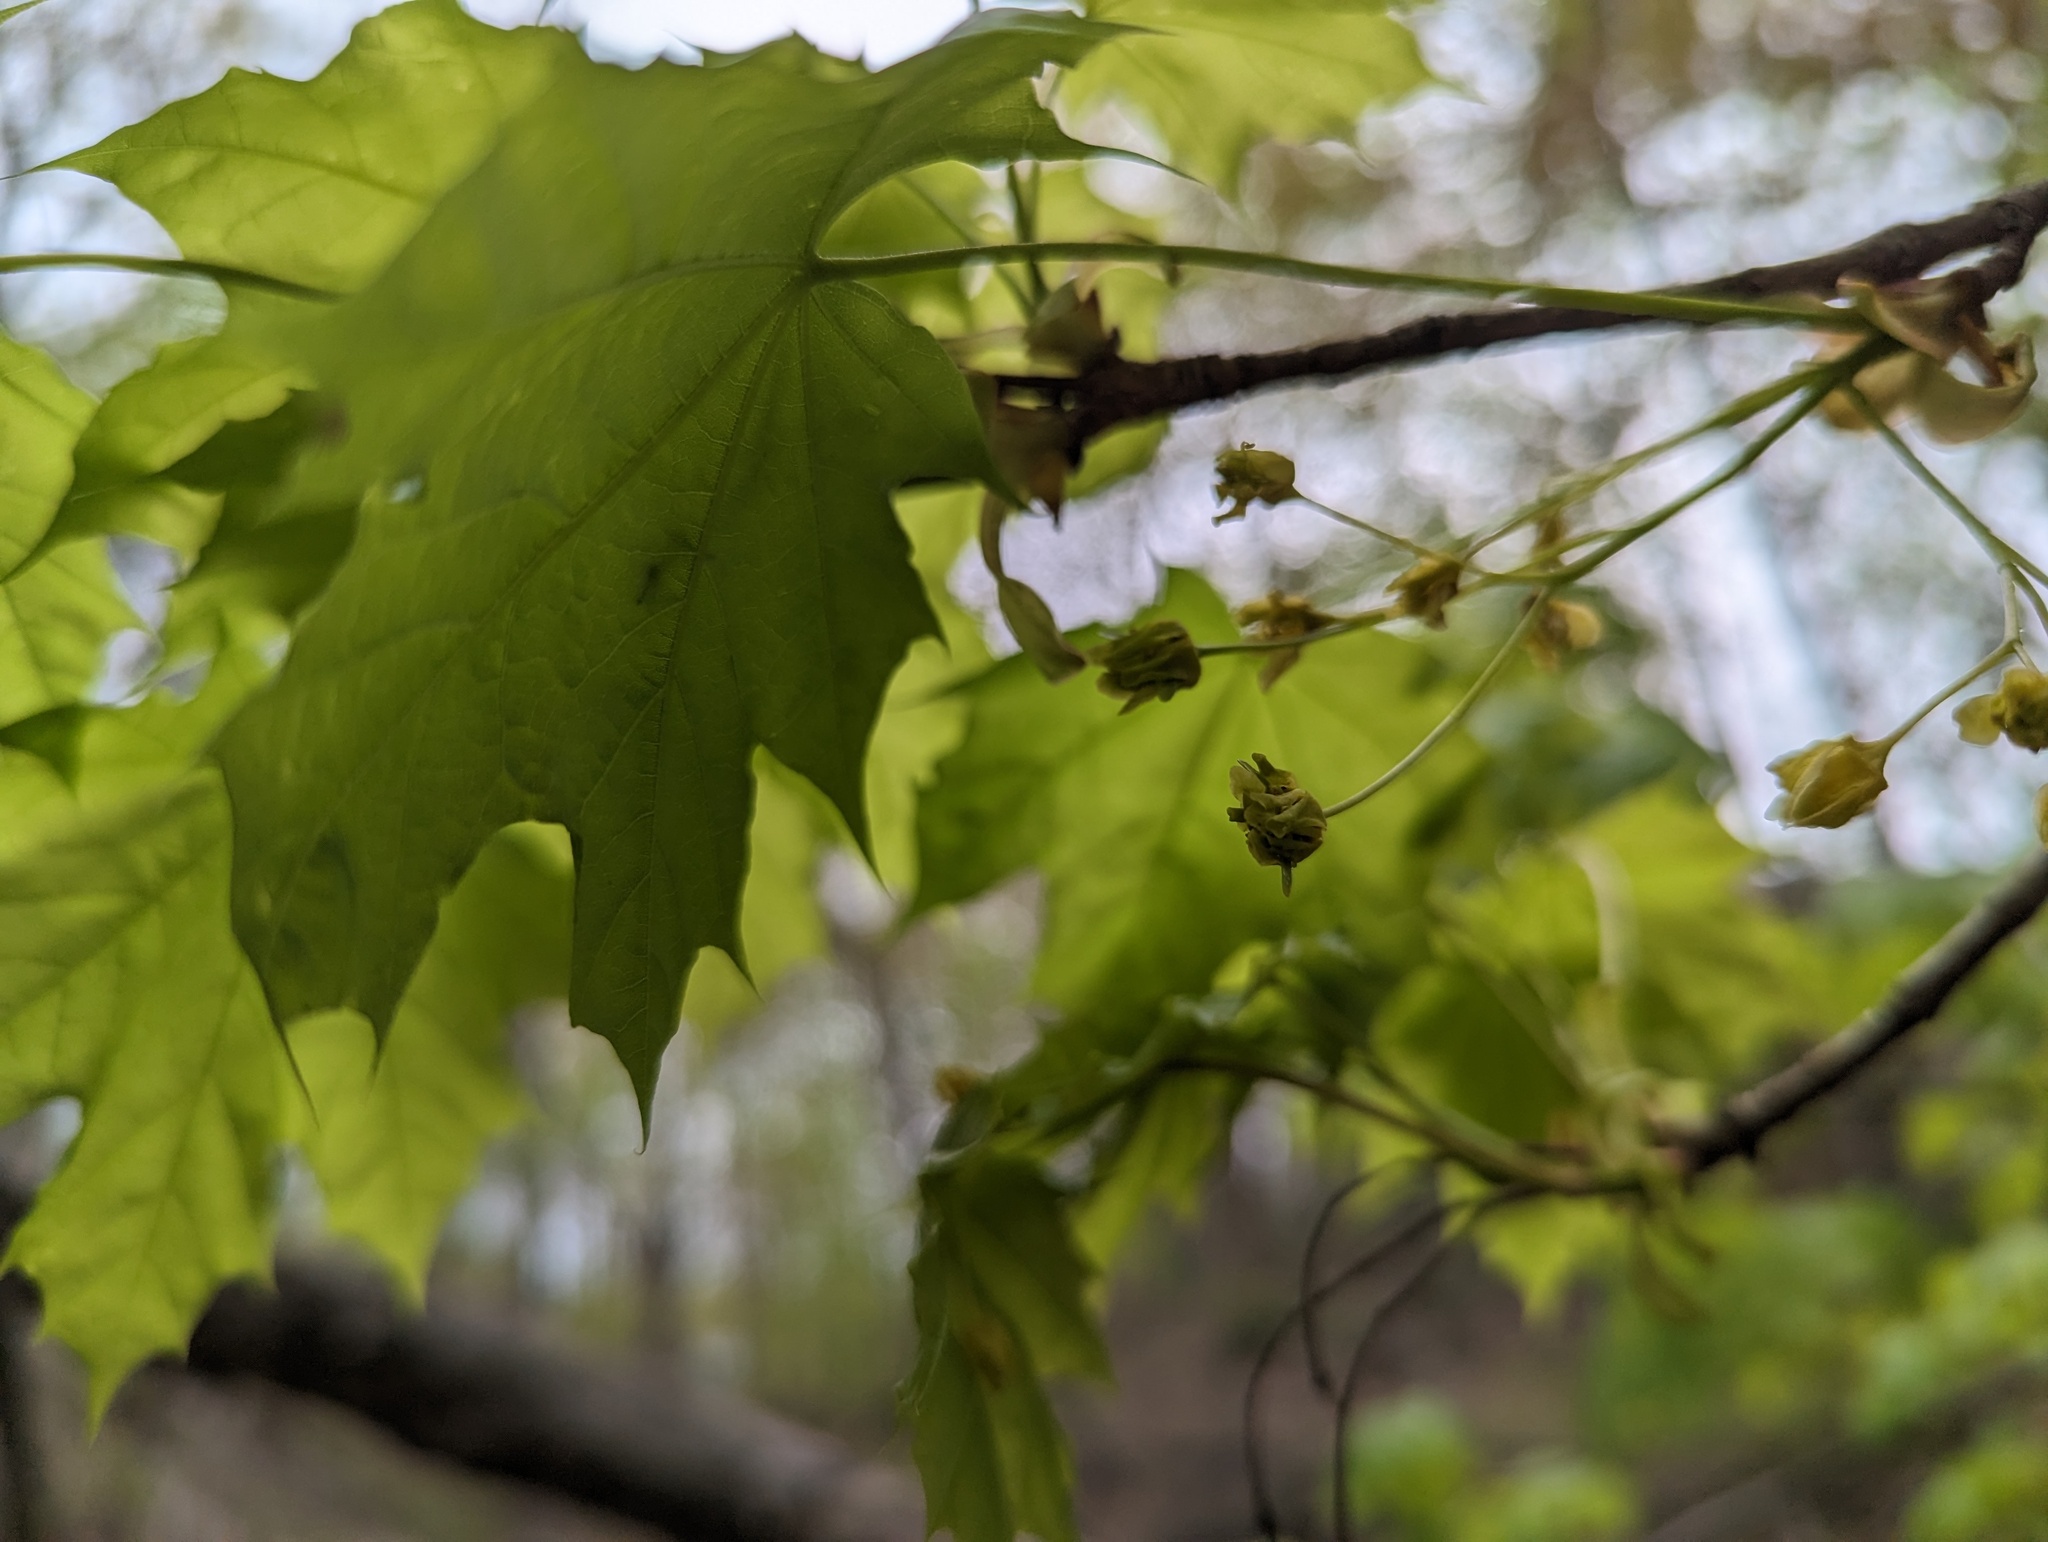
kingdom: Plantae
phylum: Tracheophyta
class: Magnoliopsida
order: Sapindales
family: Sapindaceae
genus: Acer
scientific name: Acer platanoides
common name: Norway maple
